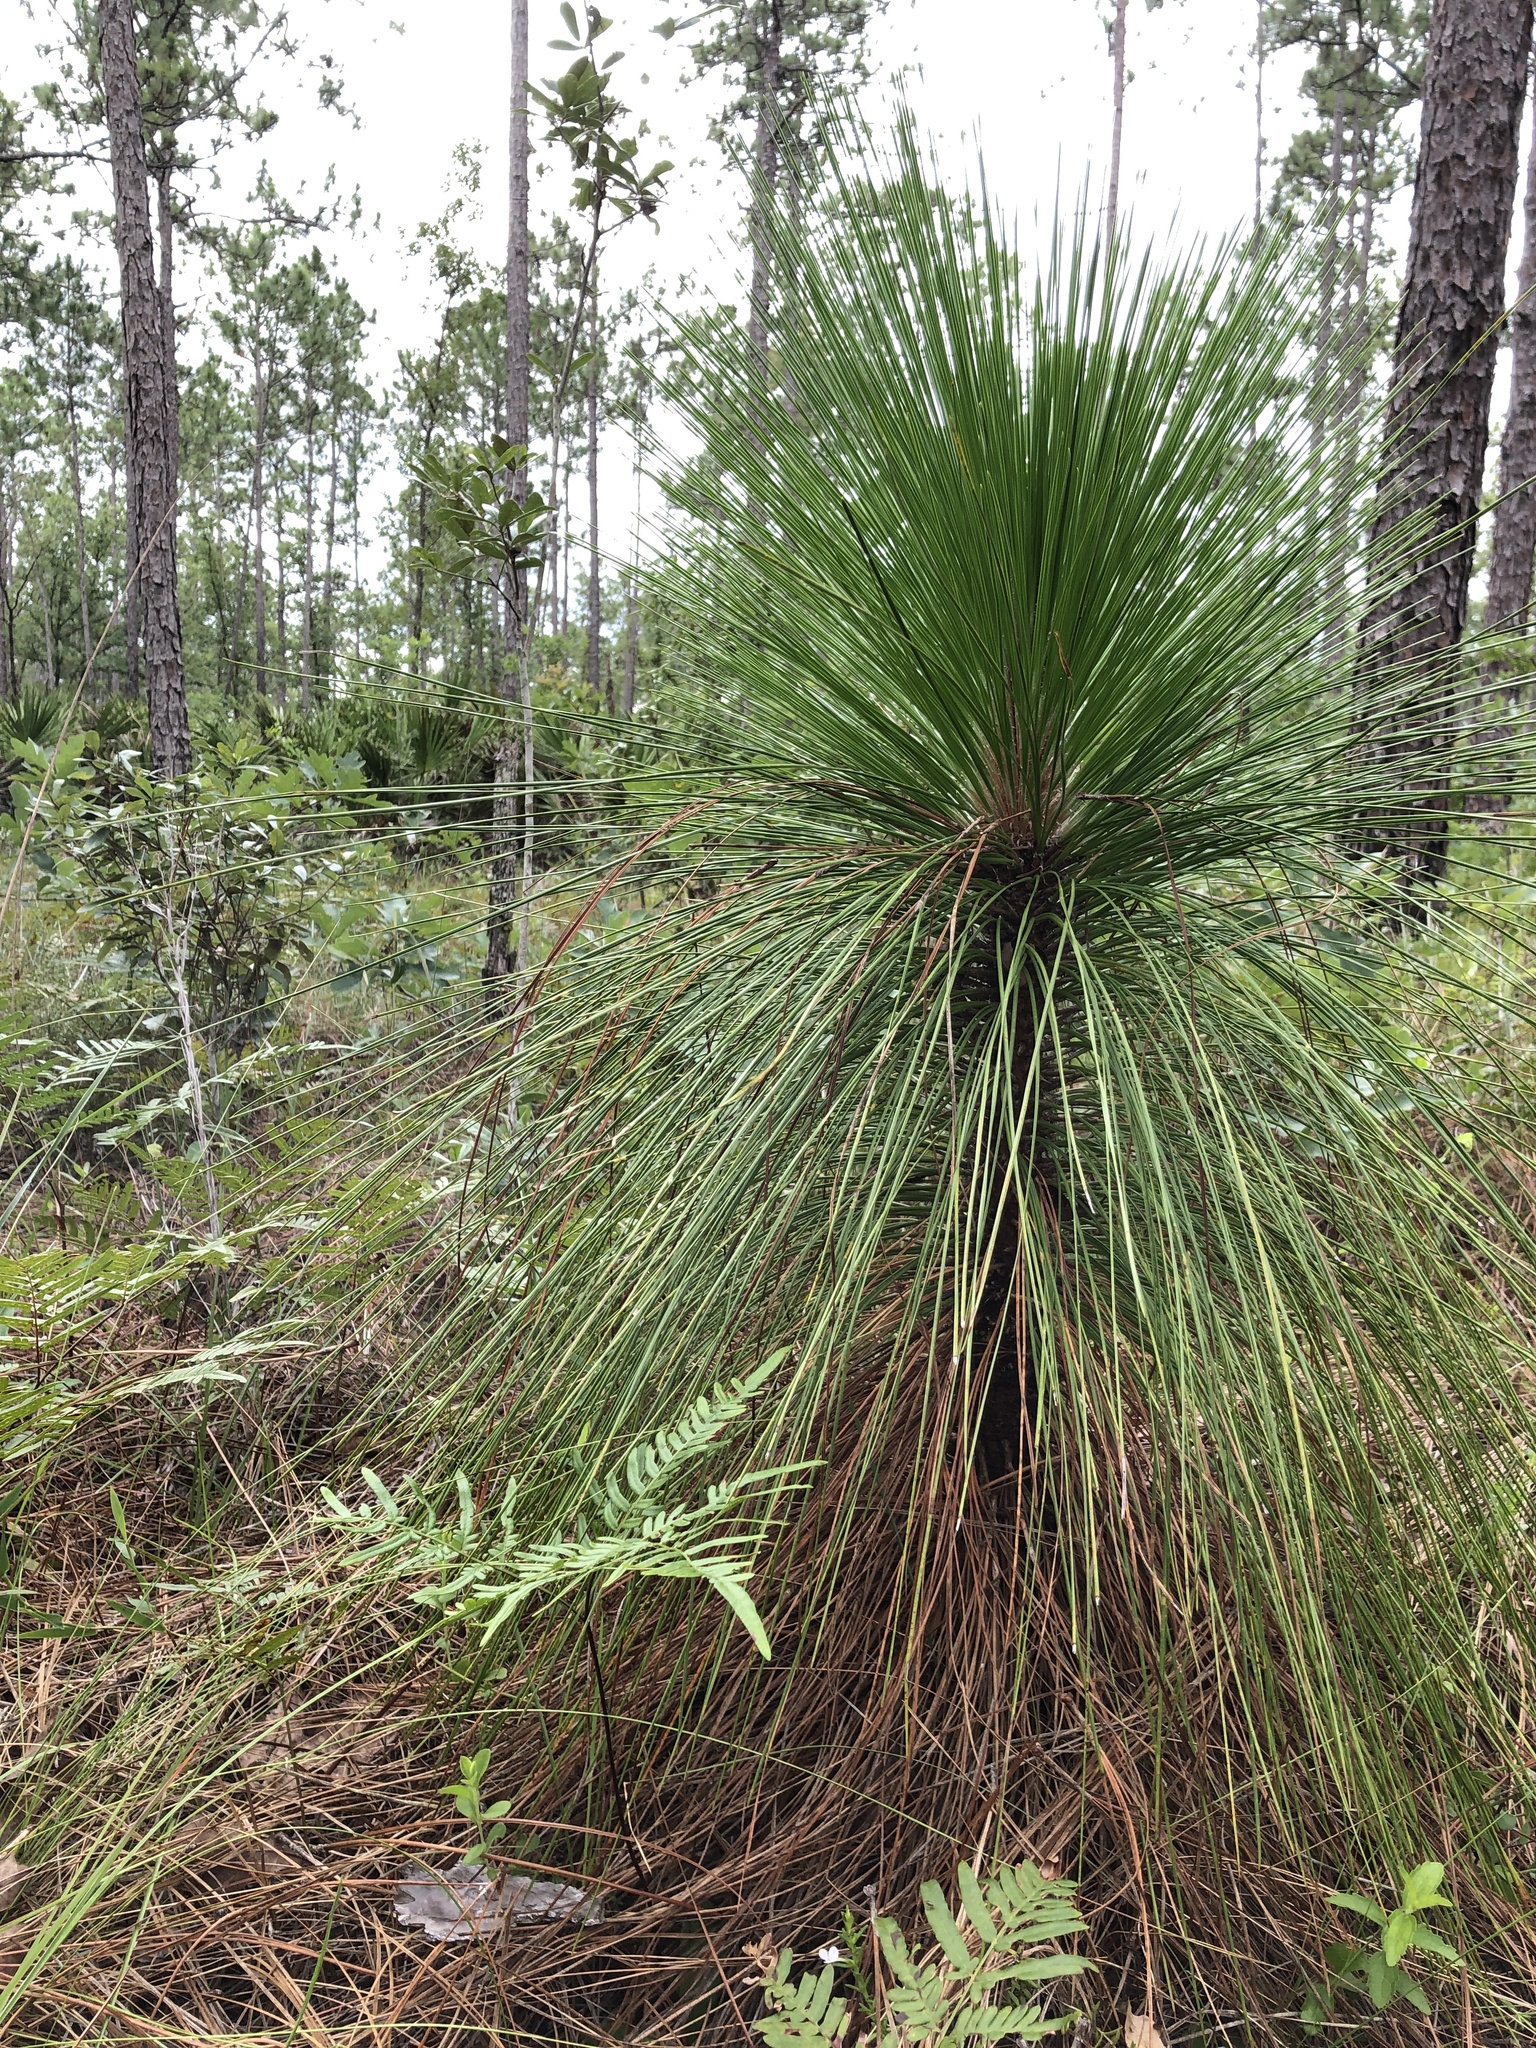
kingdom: Plantae
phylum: Tracheophyta
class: Pinopsida
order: Pinales
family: Pinaceae
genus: Pinus
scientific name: Pinus palustris
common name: Longleaf pine
